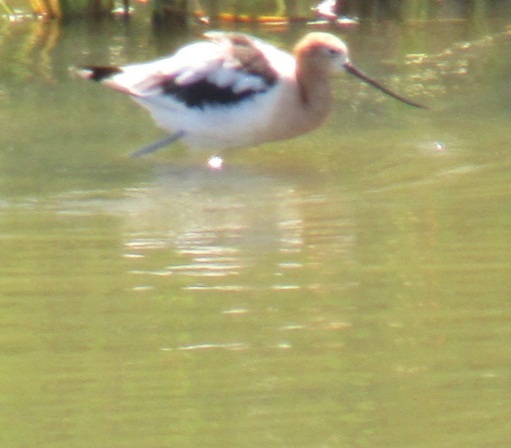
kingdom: Animalia
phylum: Chordata
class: Aves
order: Charadriiformes
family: Recurvirostridae
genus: Recurvirostra
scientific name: Recurvirostra americana
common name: American avocet
